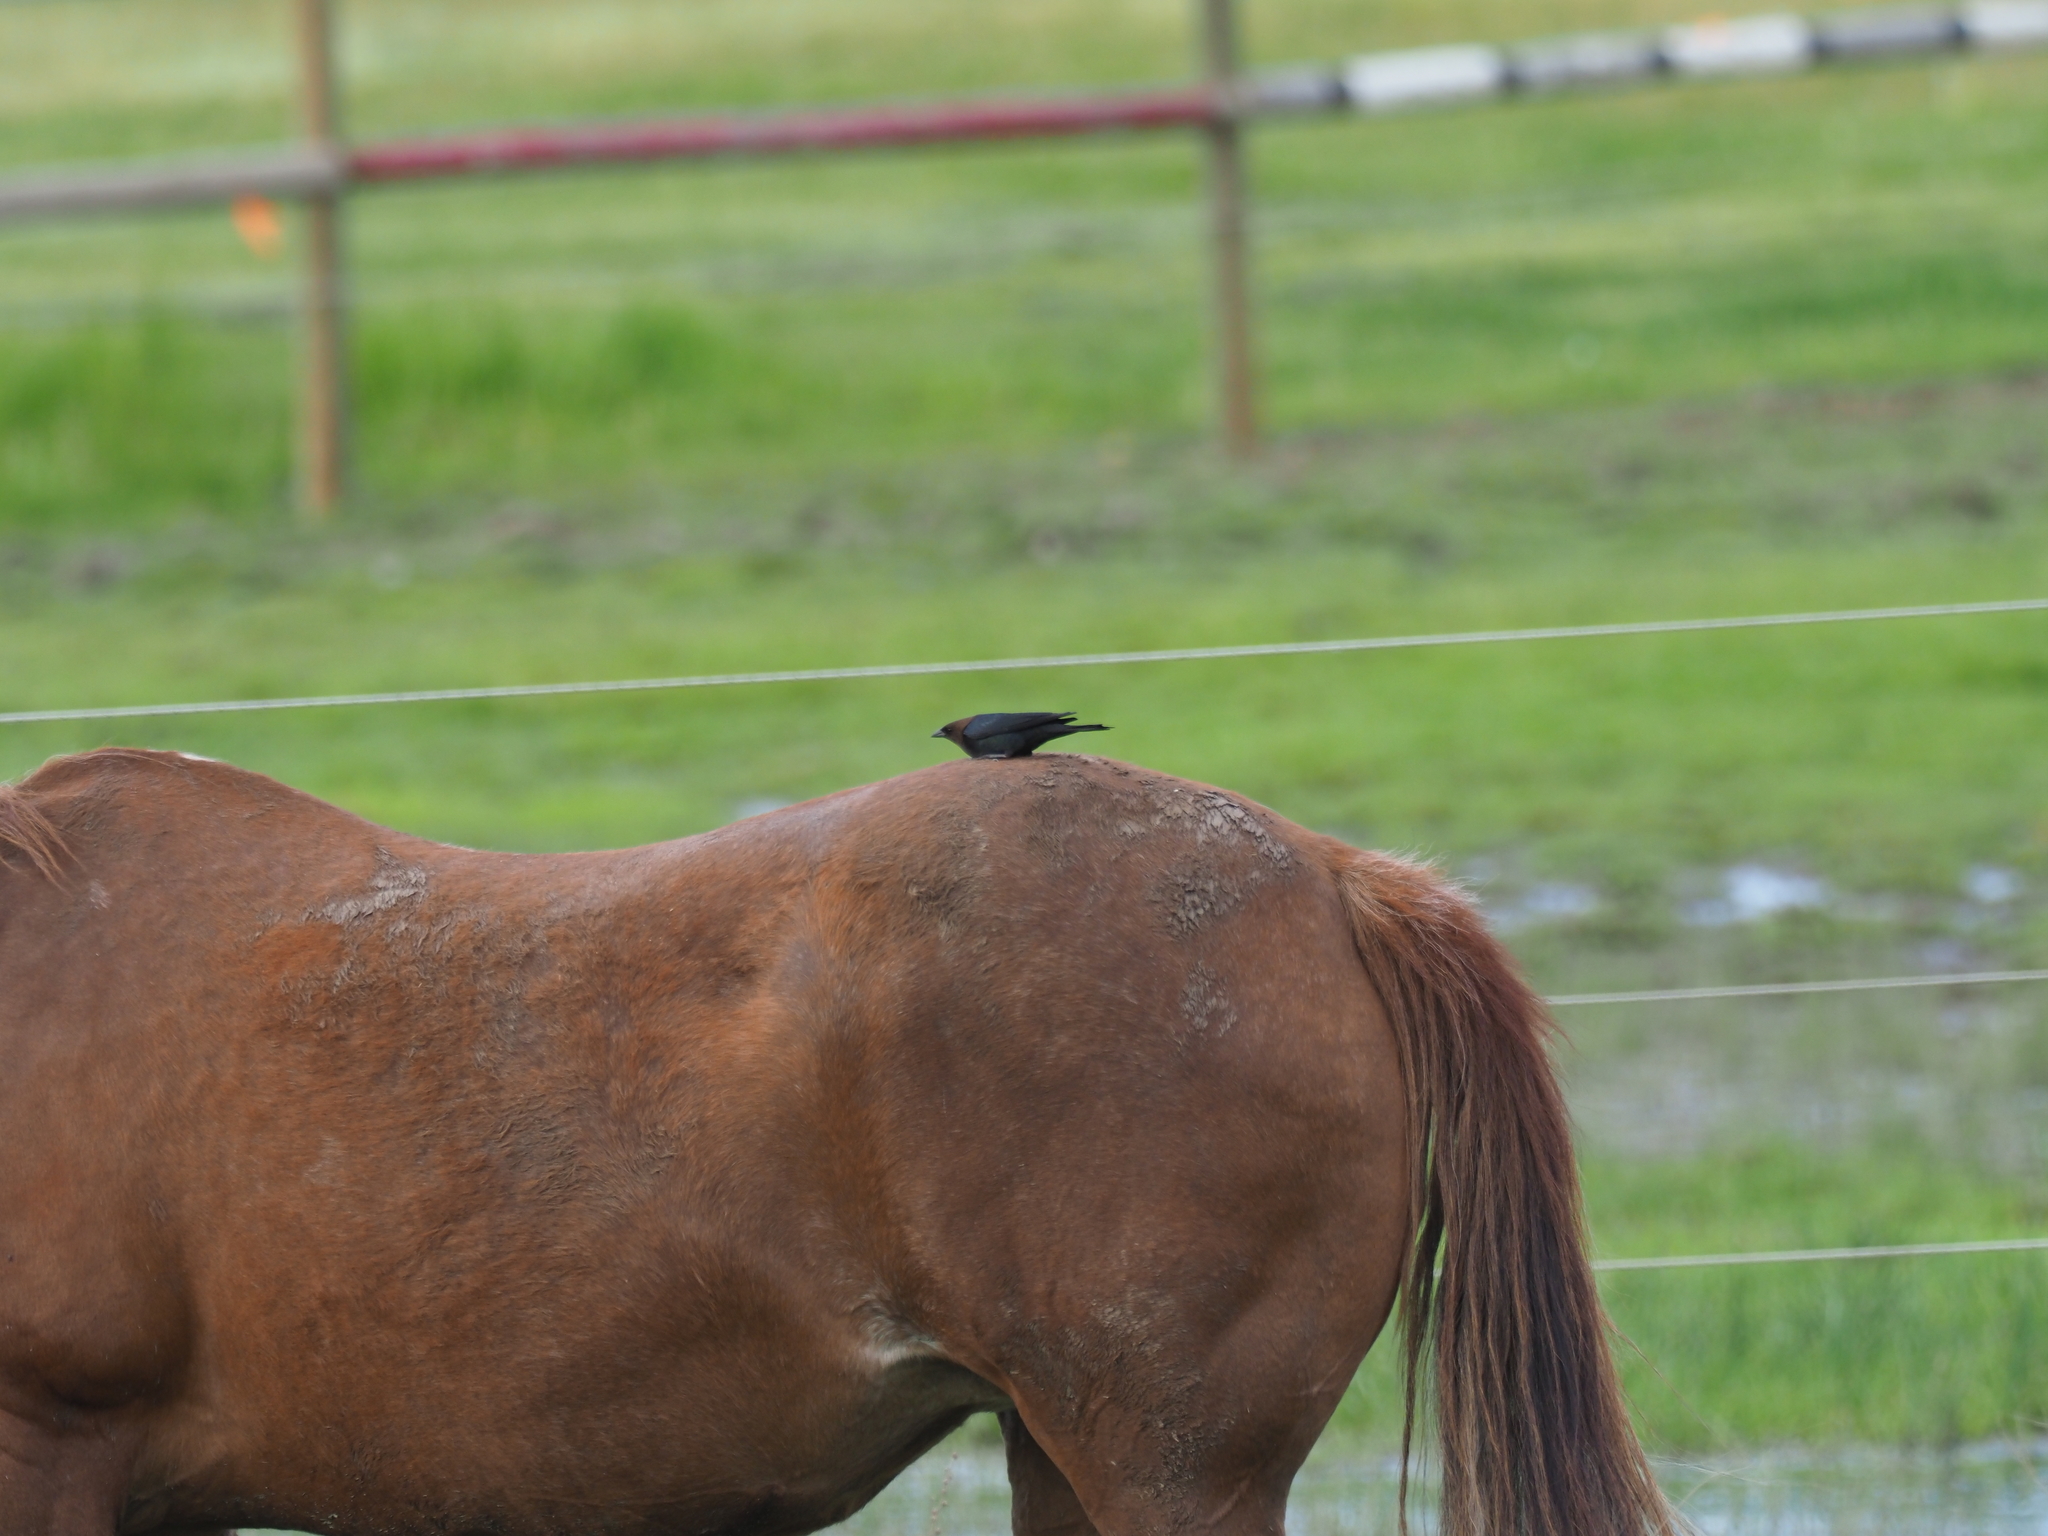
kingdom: Animalia
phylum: Chordata
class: Aves
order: Passeriformes
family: Icteridae
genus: Molothrus
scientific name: Molothrus ater
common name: Brown-headed cowbird
